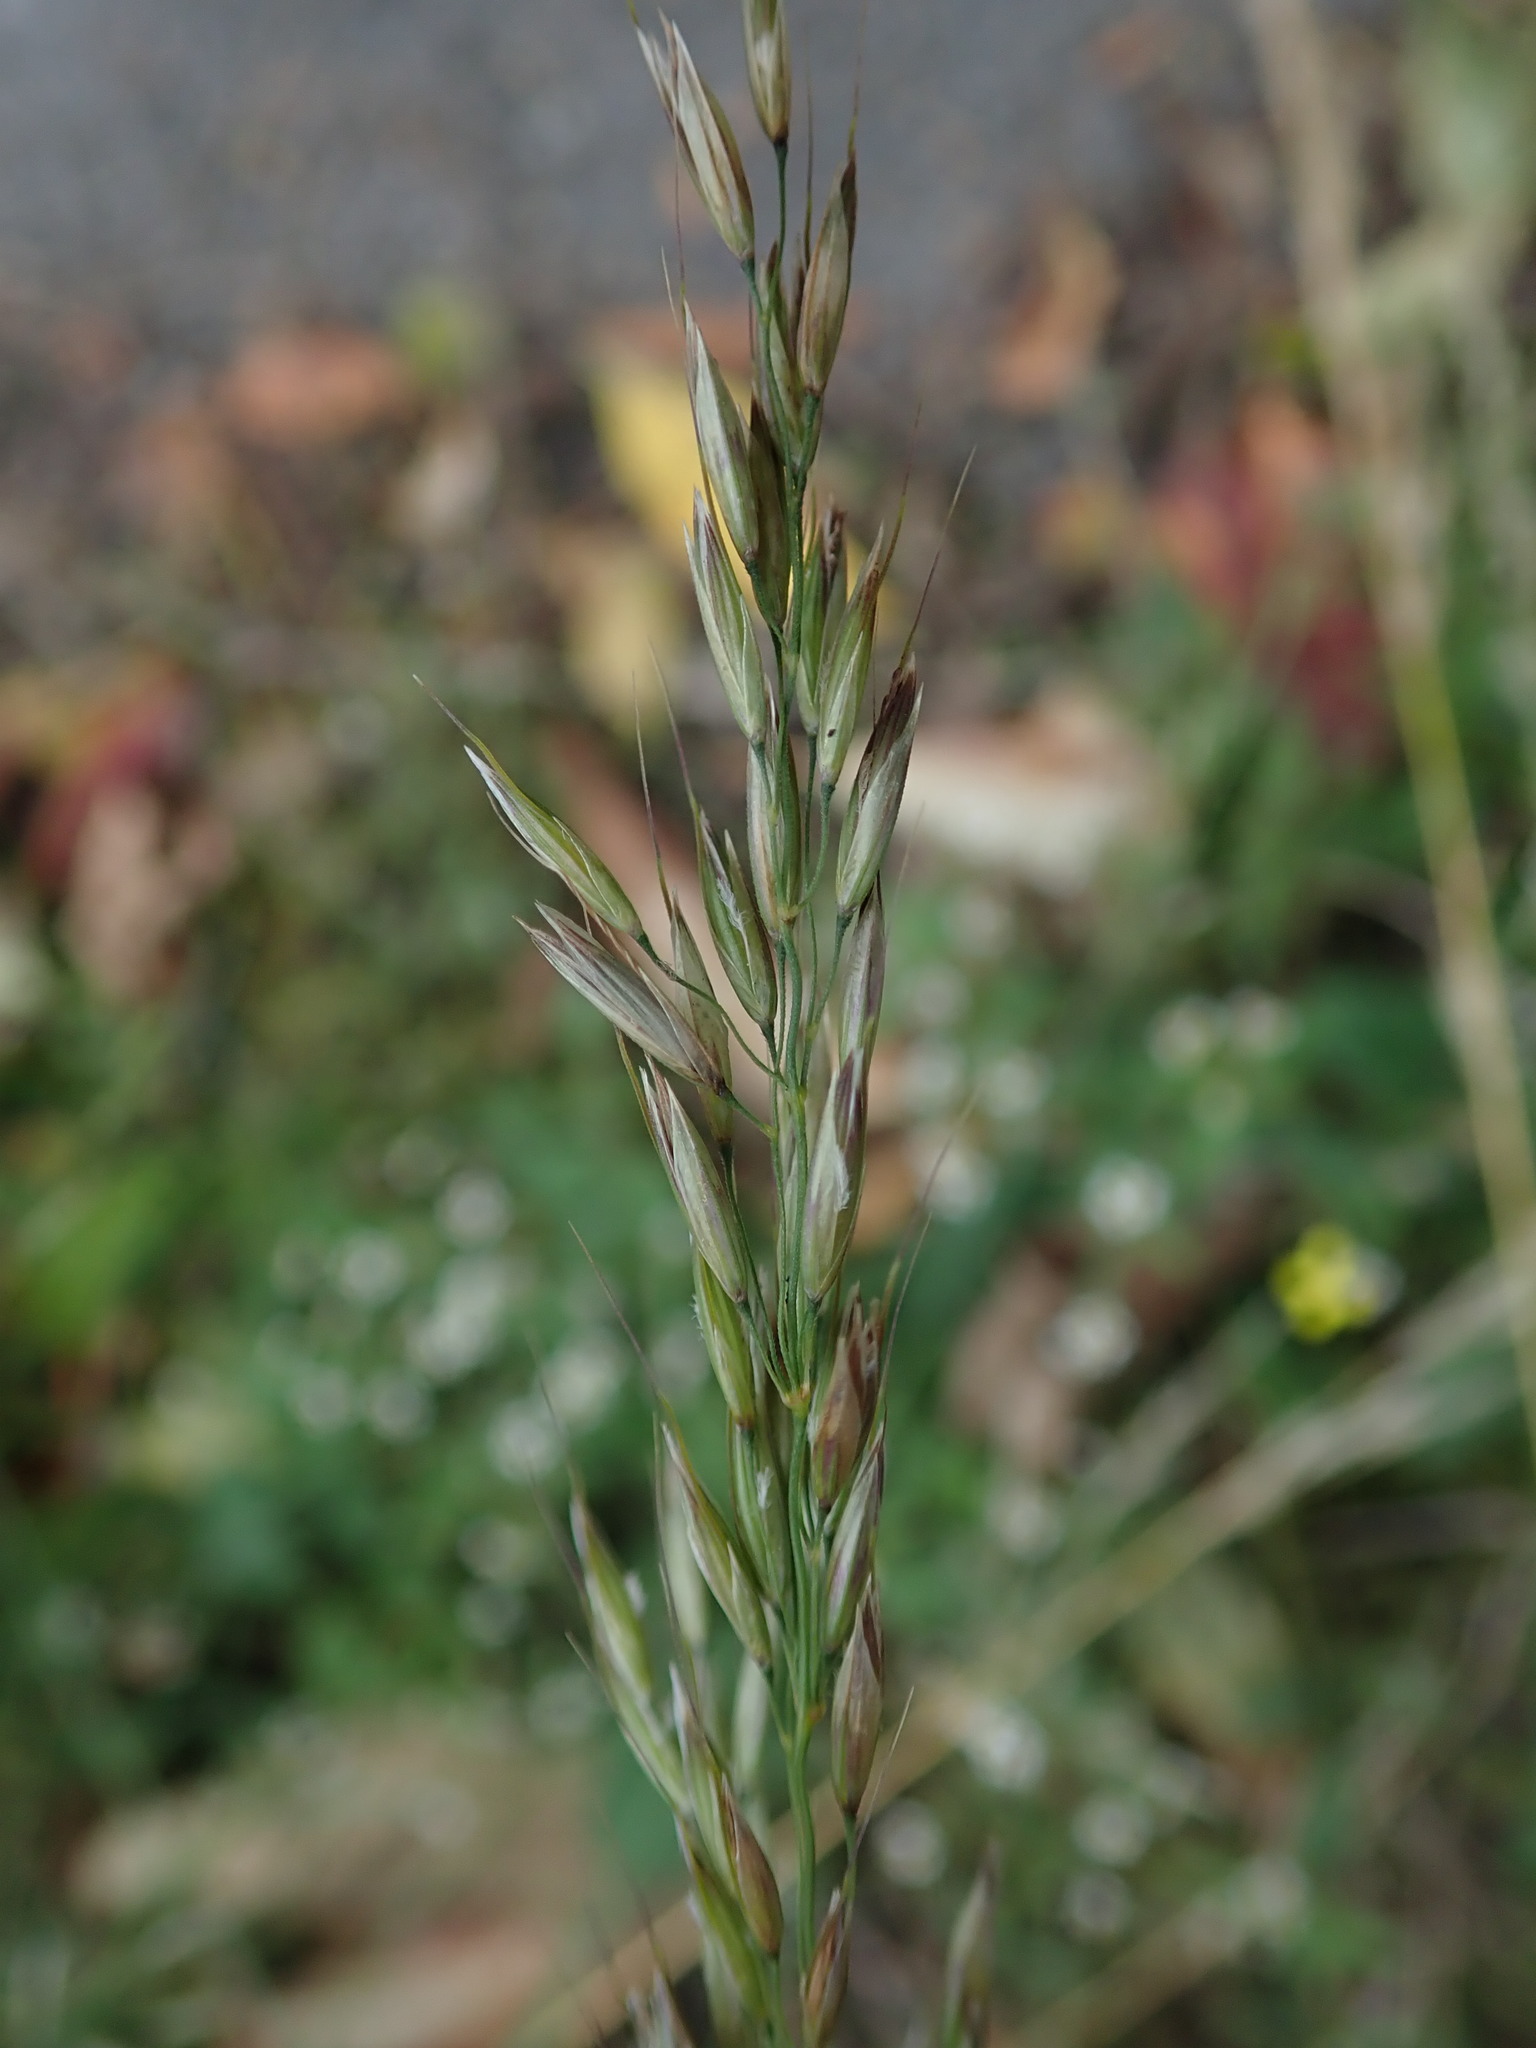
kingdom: Plantae
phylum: Tracheophyta
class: Liliopsida
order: Poales
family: Poaceae
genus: Arrhenatherum
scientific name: Arrhenatherum elatius
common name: Tall oatgrass
